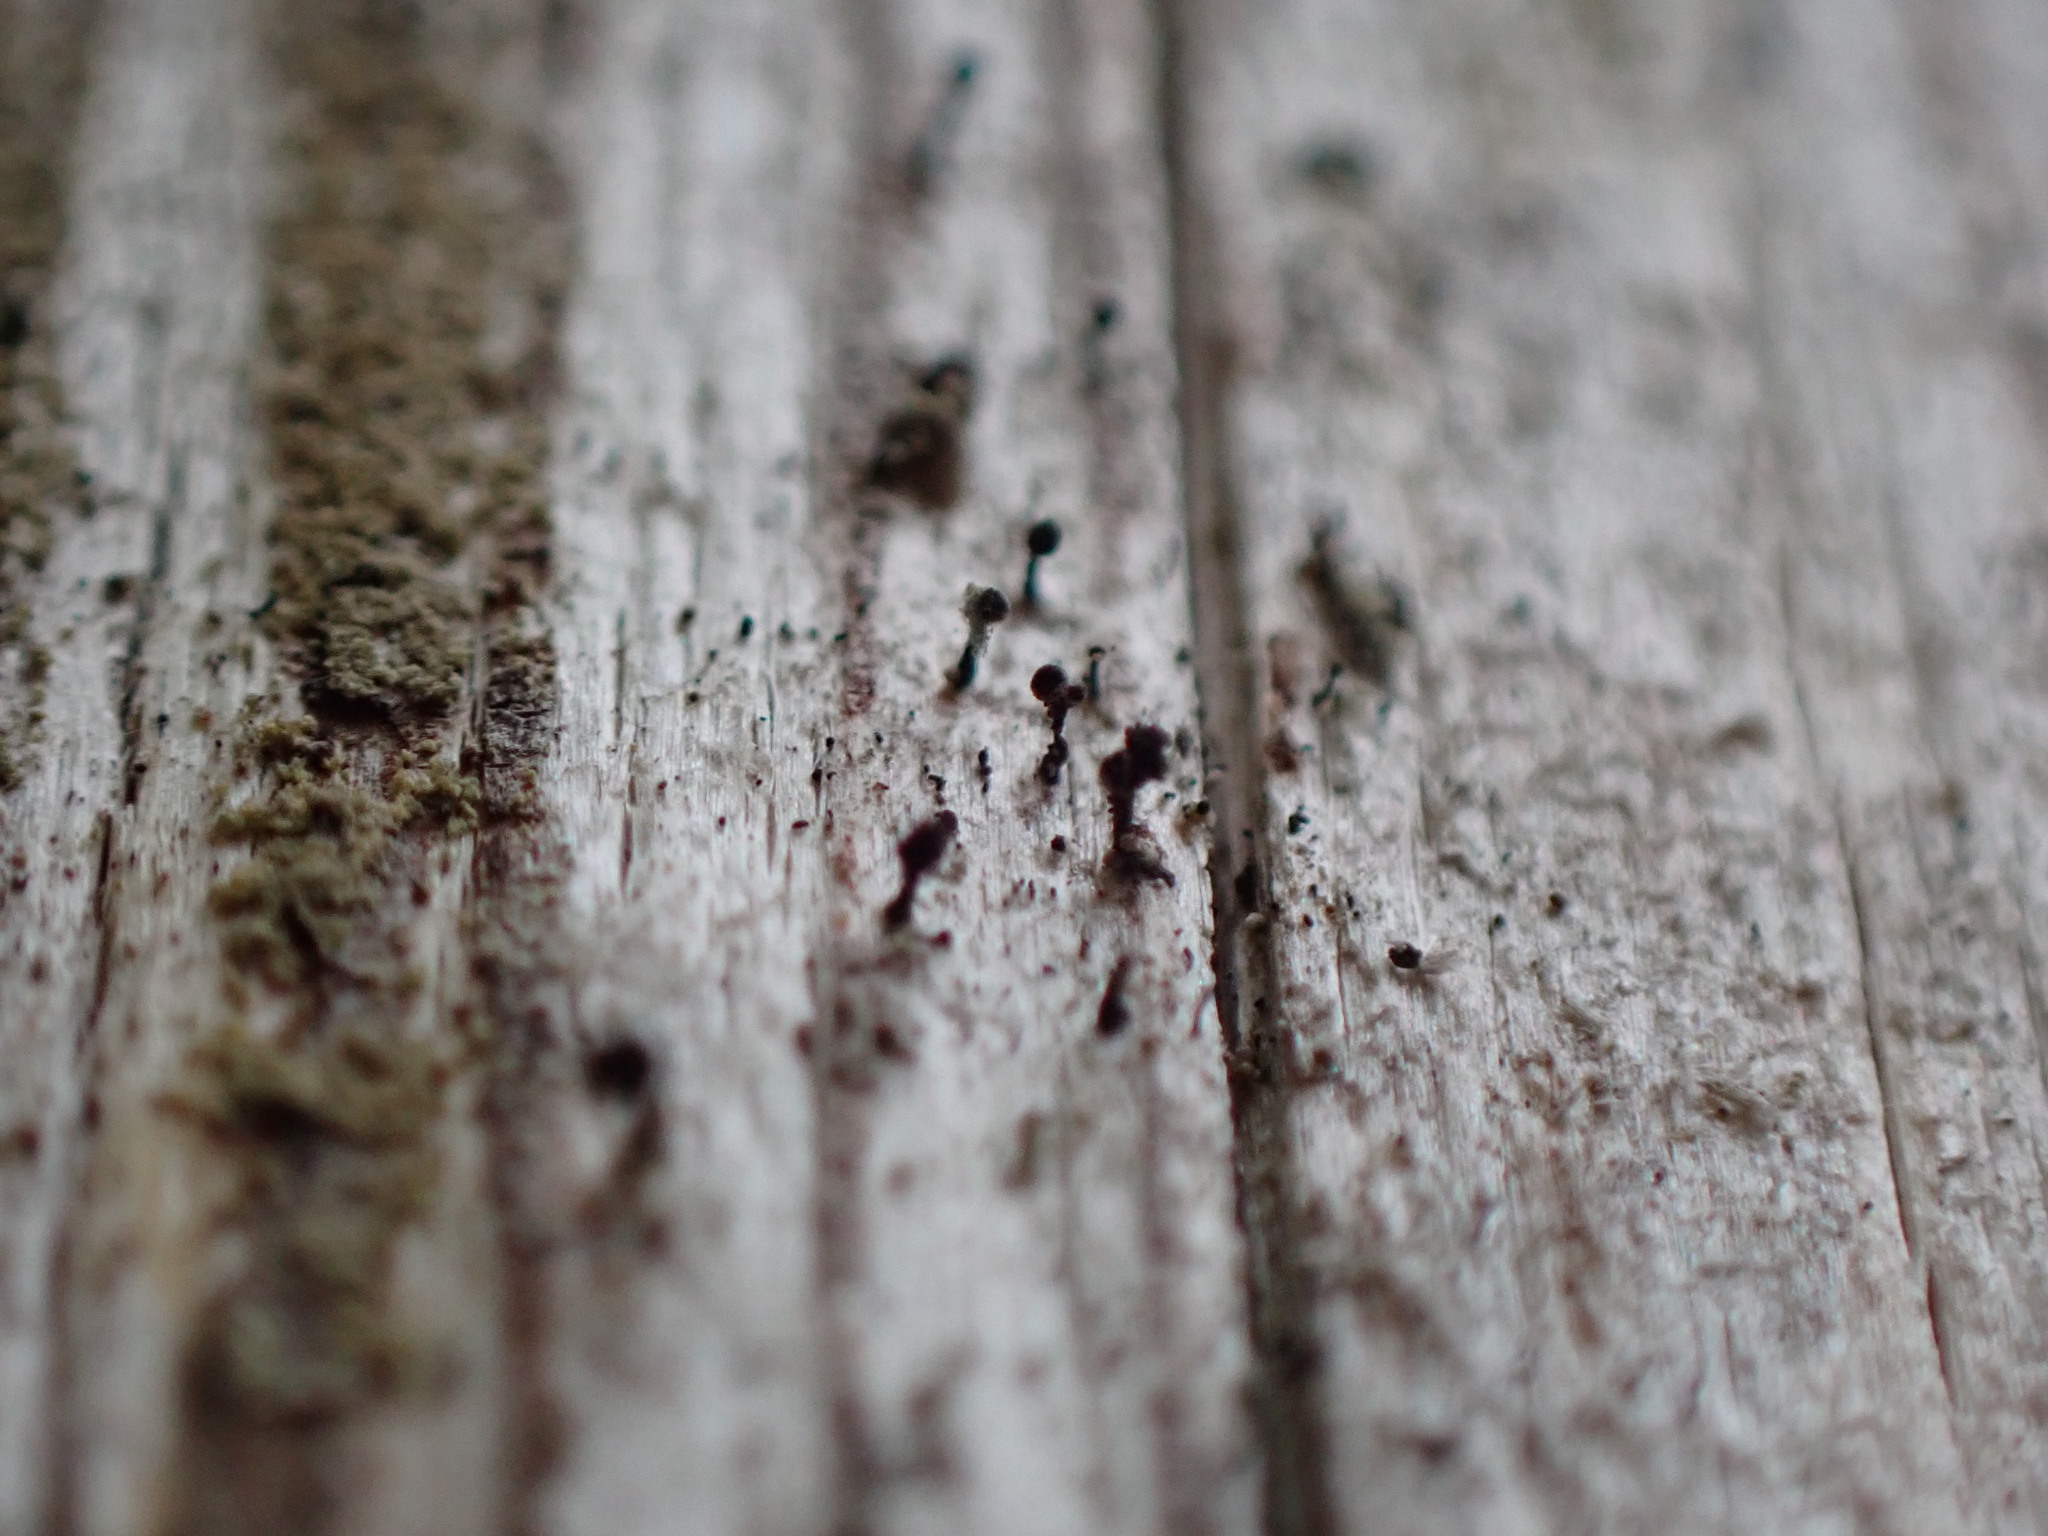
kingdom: Fungi
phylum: Ascomycota
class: Lecanoromycetes
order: Caliciales
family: Caliciaceae
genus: Calicium
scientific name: Calicium glaucellum
